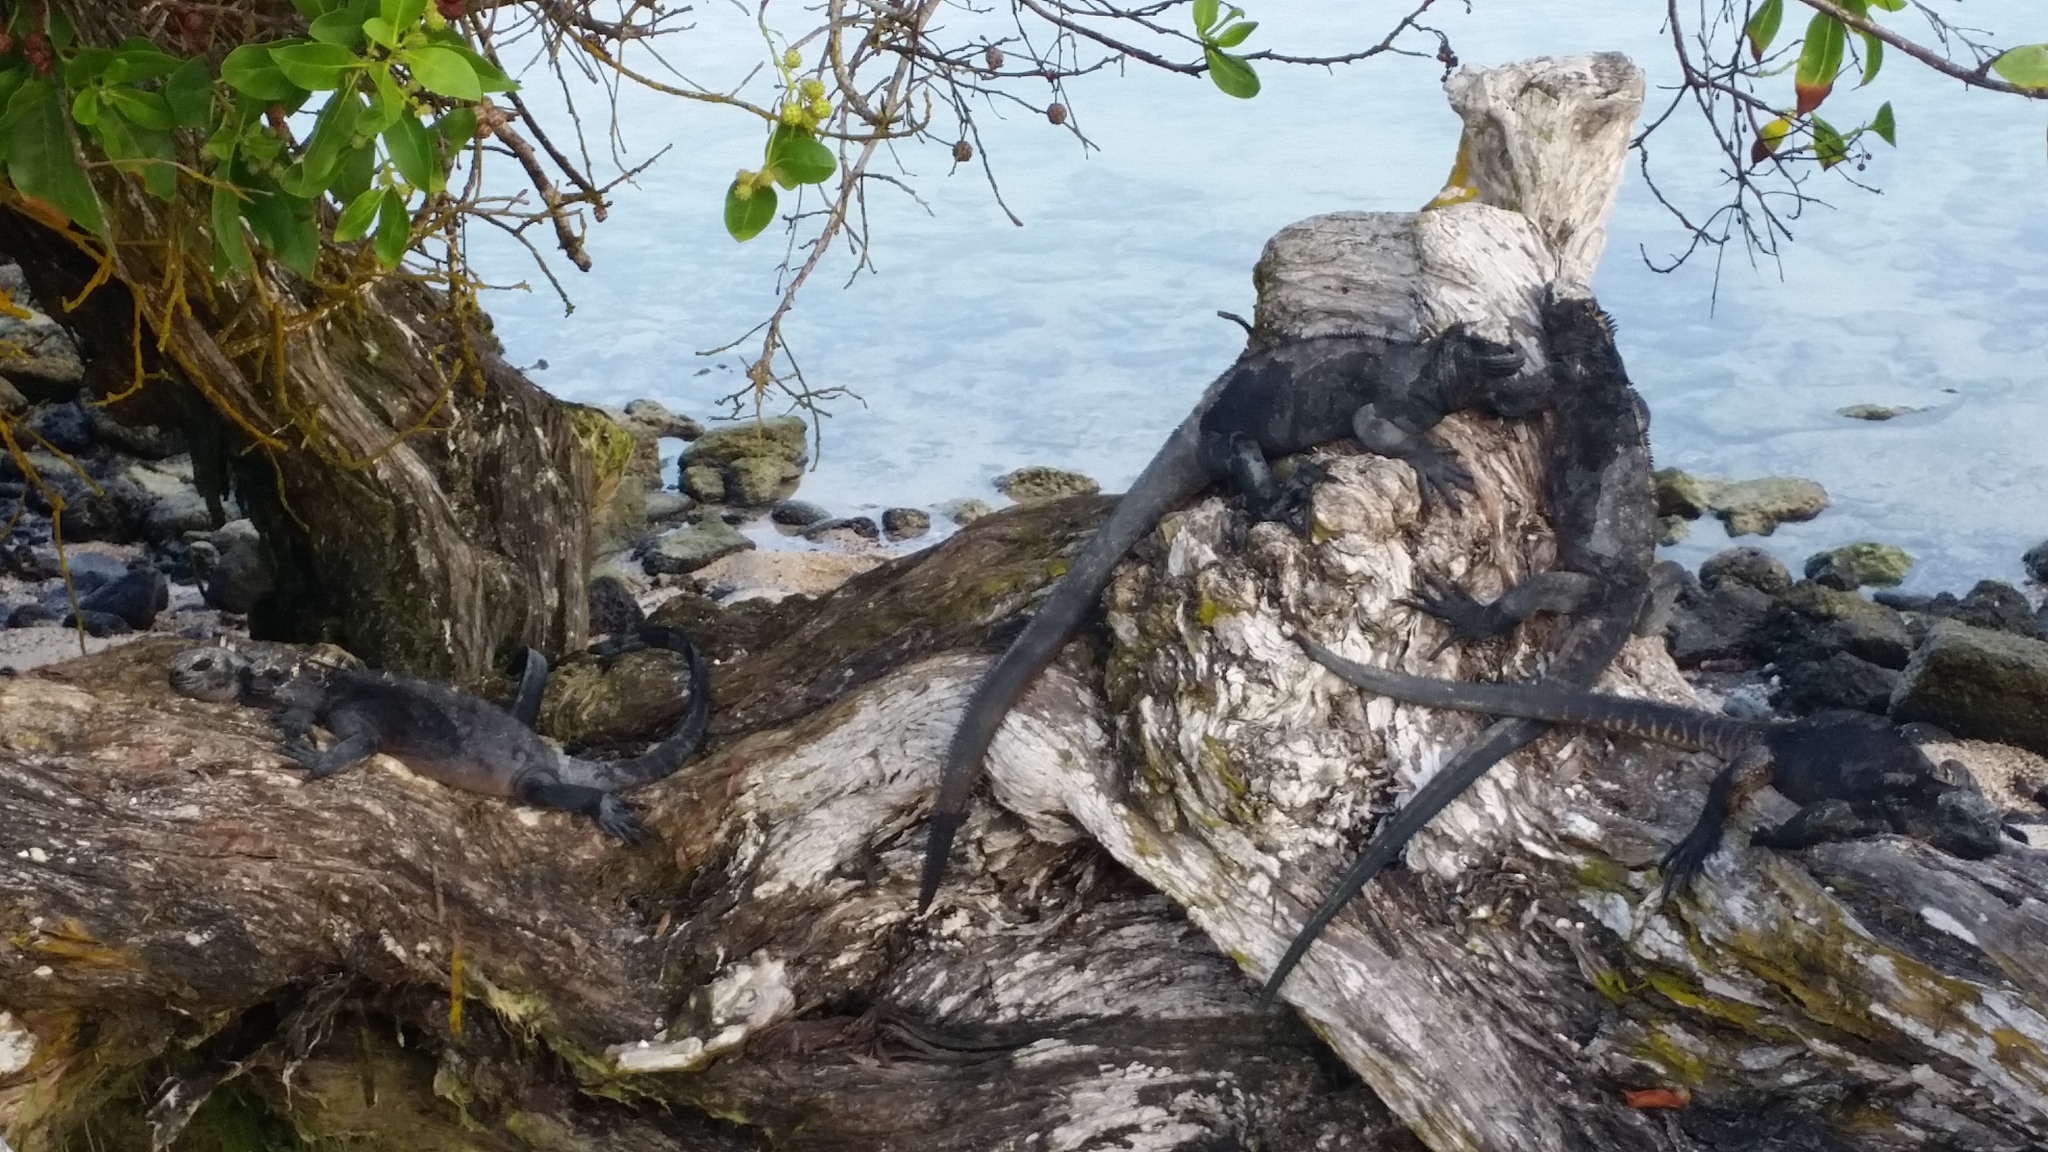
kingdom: Animalia
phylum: Chordata
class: Squamata
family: Iguanidae
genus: Amblyrhynchus
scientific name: Amblyrhynchus cristatus
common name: Marine iguana
